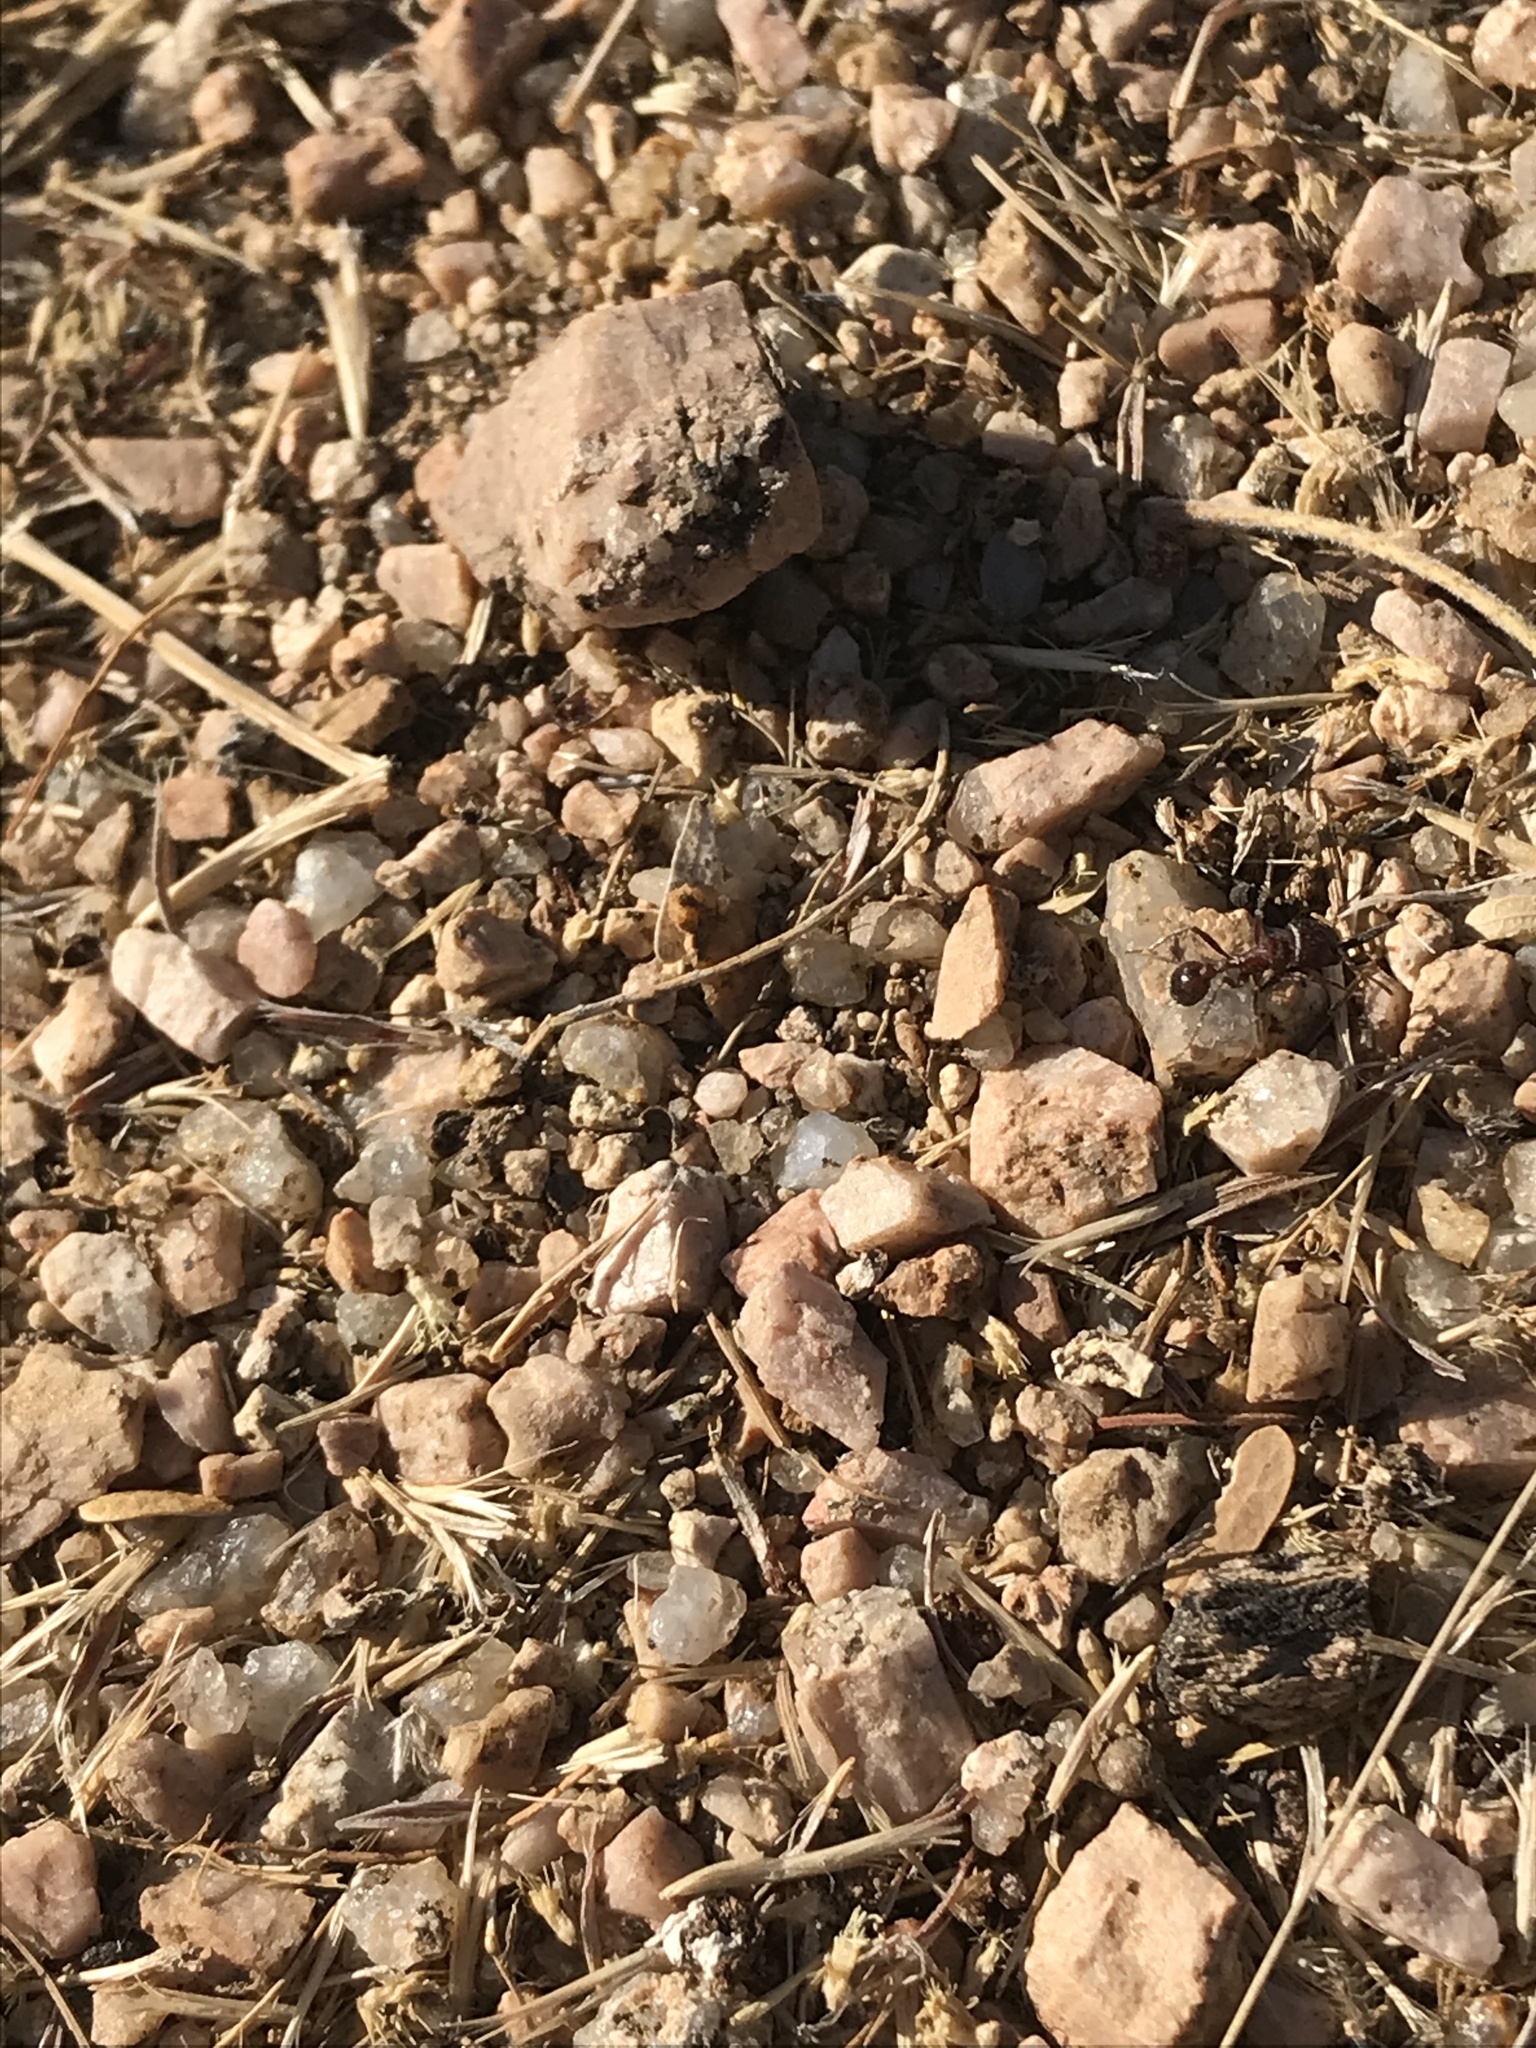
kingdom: Animalia
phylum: Arthropoda
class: Insecta
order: Hymenoptera
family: Formicidae
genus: Pogonomyrmex
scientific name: Pogonomyrmex rugosus
